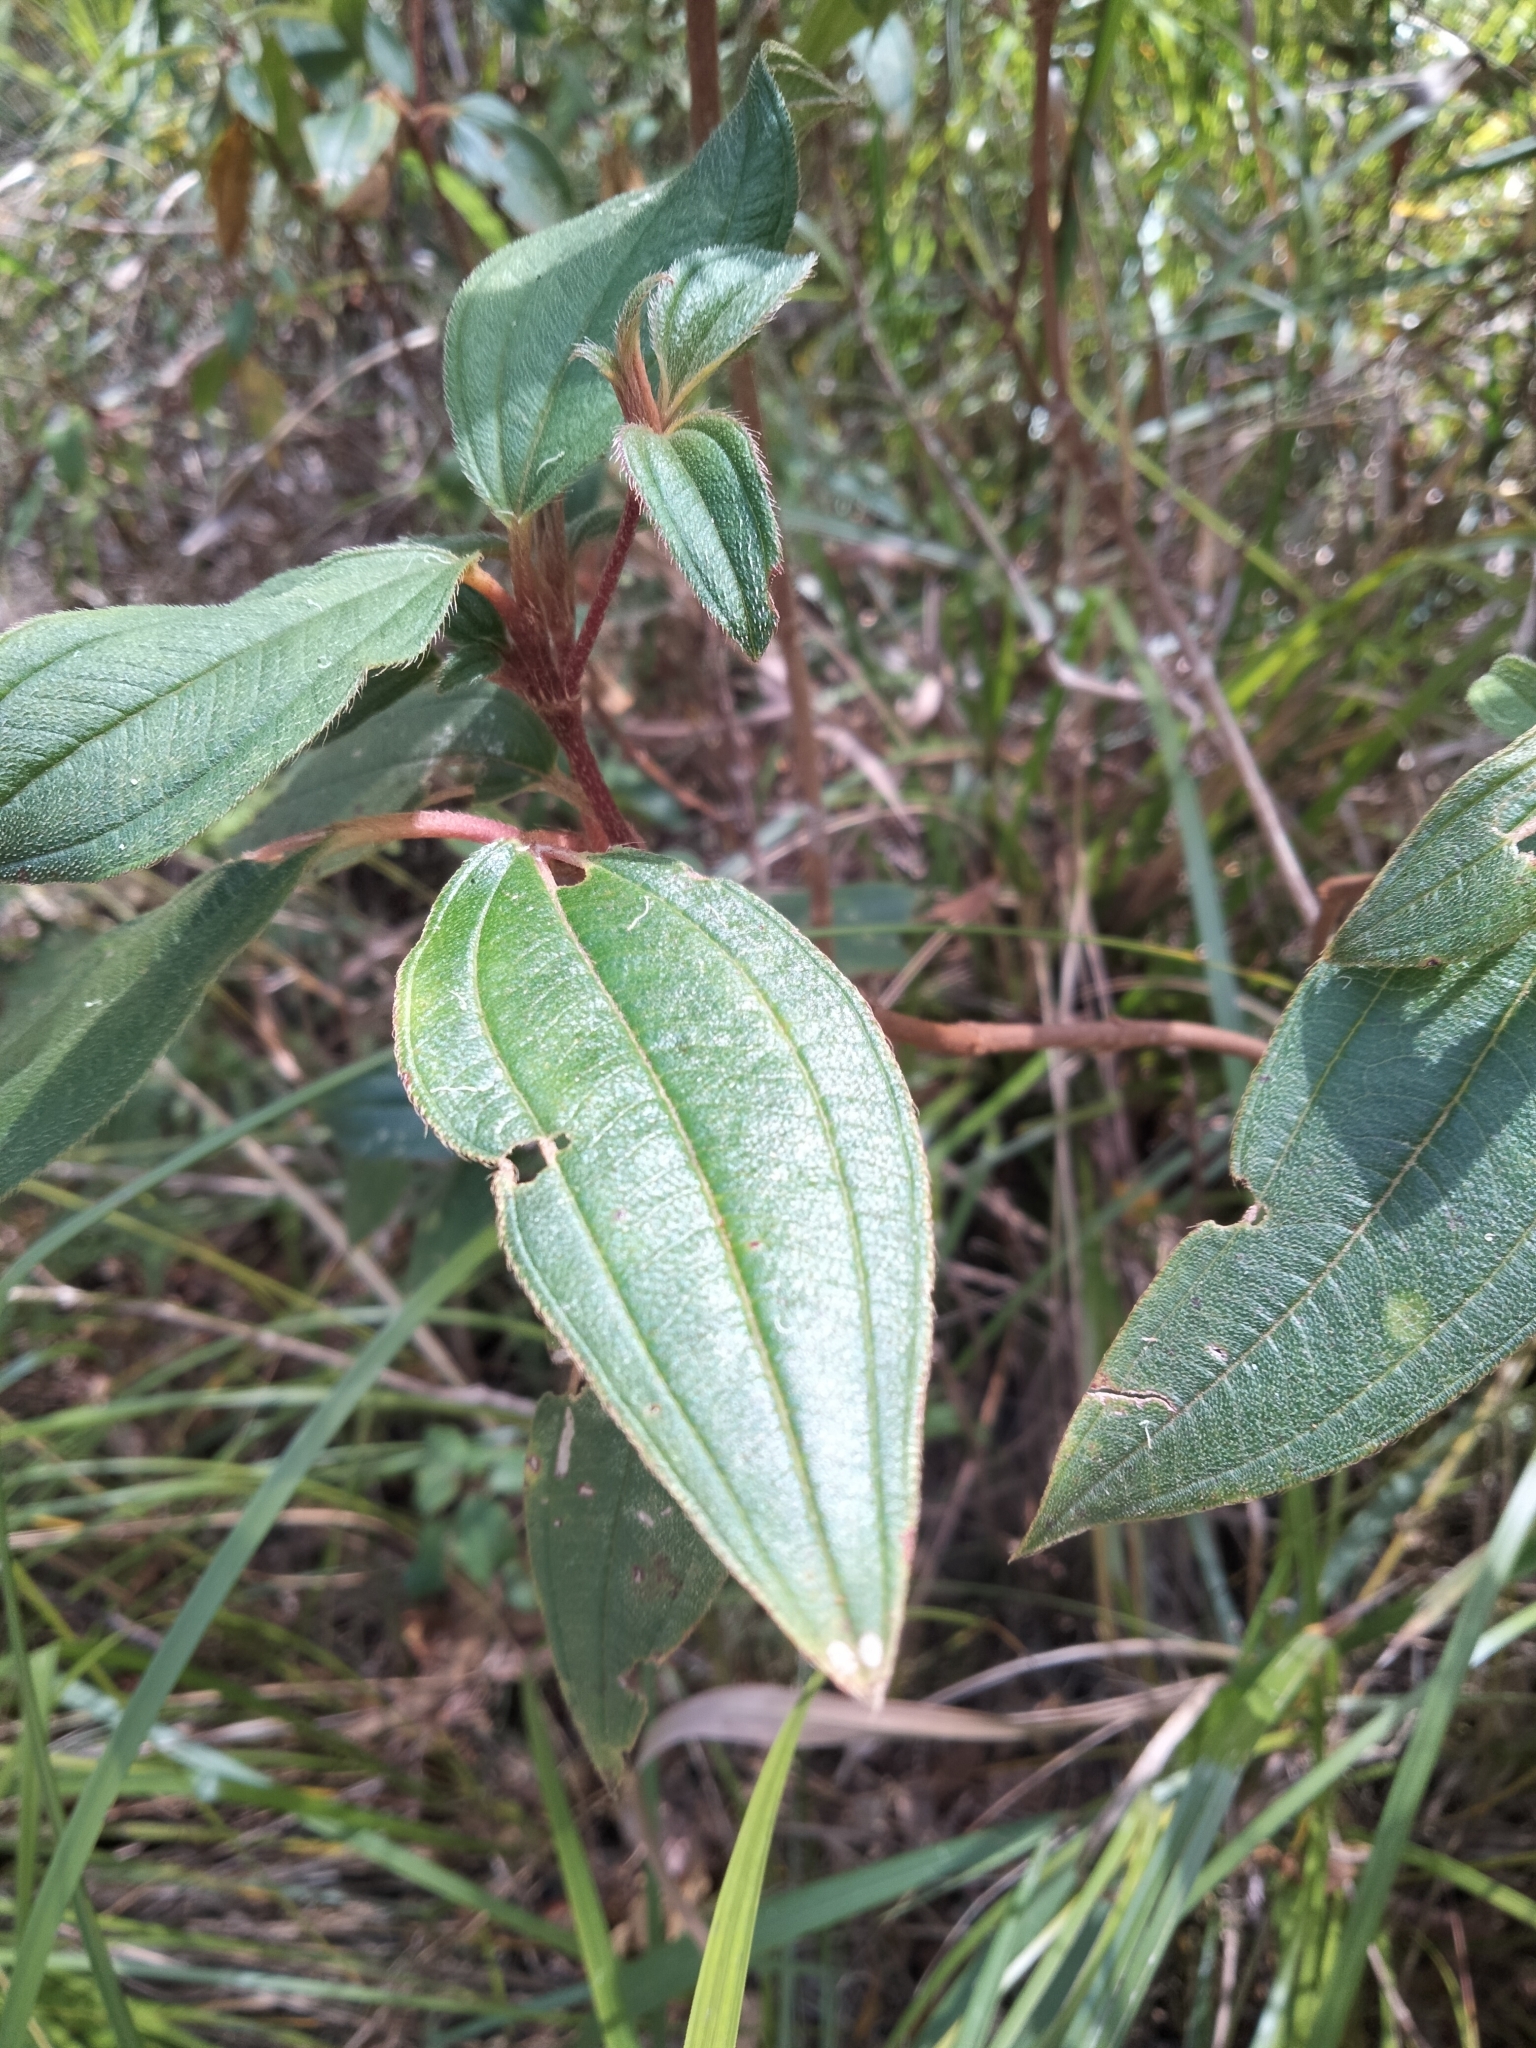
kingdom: Plantae
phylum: Tracheophyta
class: Magnoliopsida
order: Myrtales
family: Melastomataceae
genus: Melastoma
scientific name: Melastoma malabathricum
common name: Indian-rhododendron
